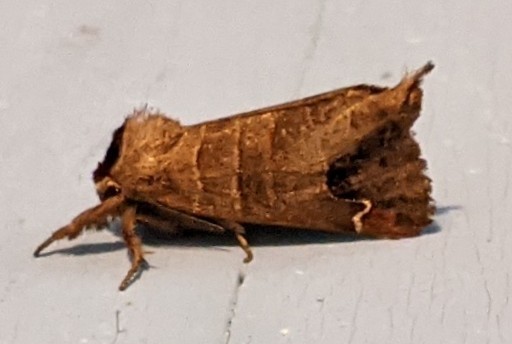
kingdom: Animalia
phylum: Arthropoda
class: Insecta
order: Lepidoptera
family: Notodontidae
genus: Clostera
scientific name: Clostera albosigma
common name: Sigmoid prominent
